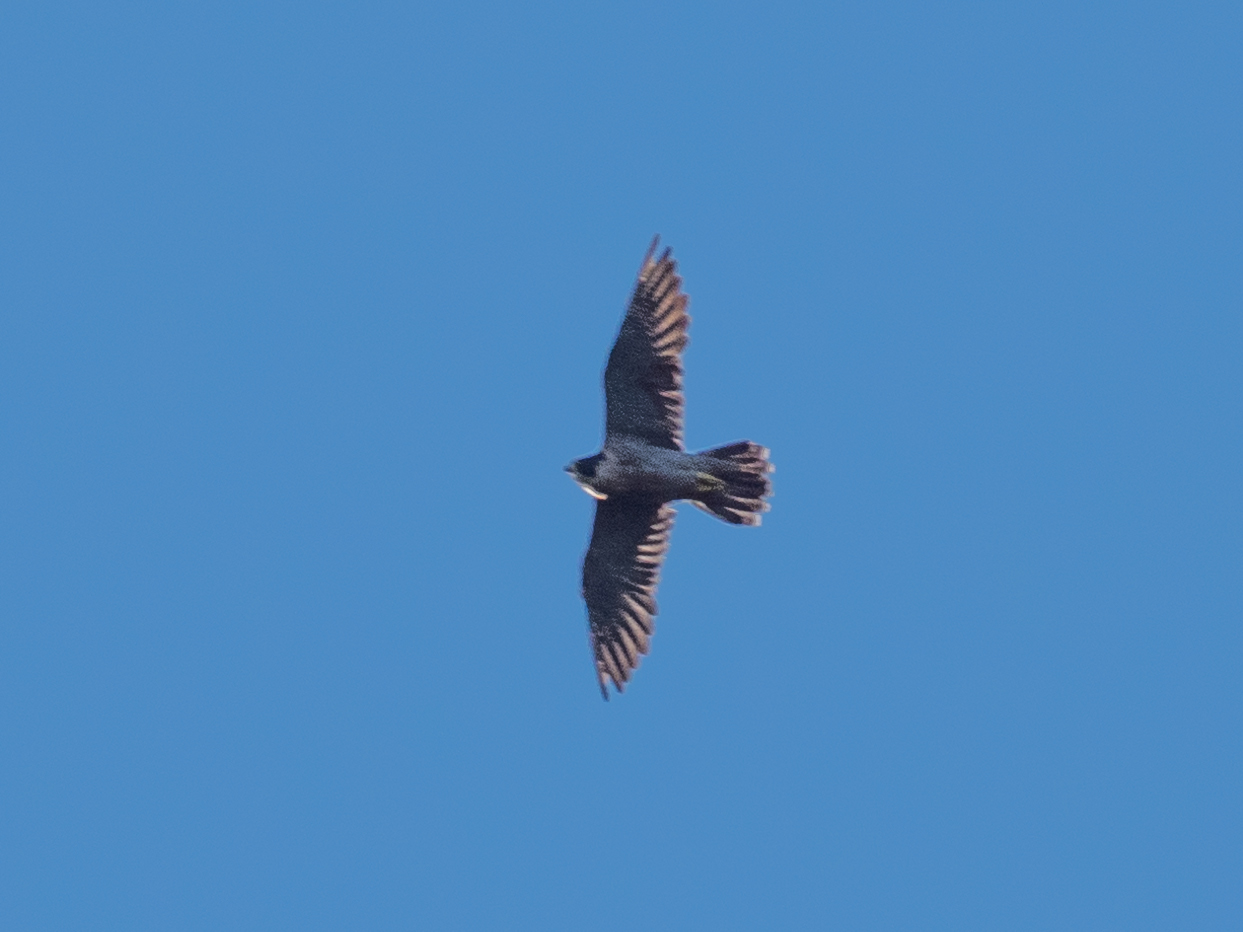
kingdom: Animalia
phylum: Chordata
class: Aves
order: Falconiformes
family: Falconidae
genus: Falco
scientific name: Falco peregrinus
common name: Peregrine falcon
